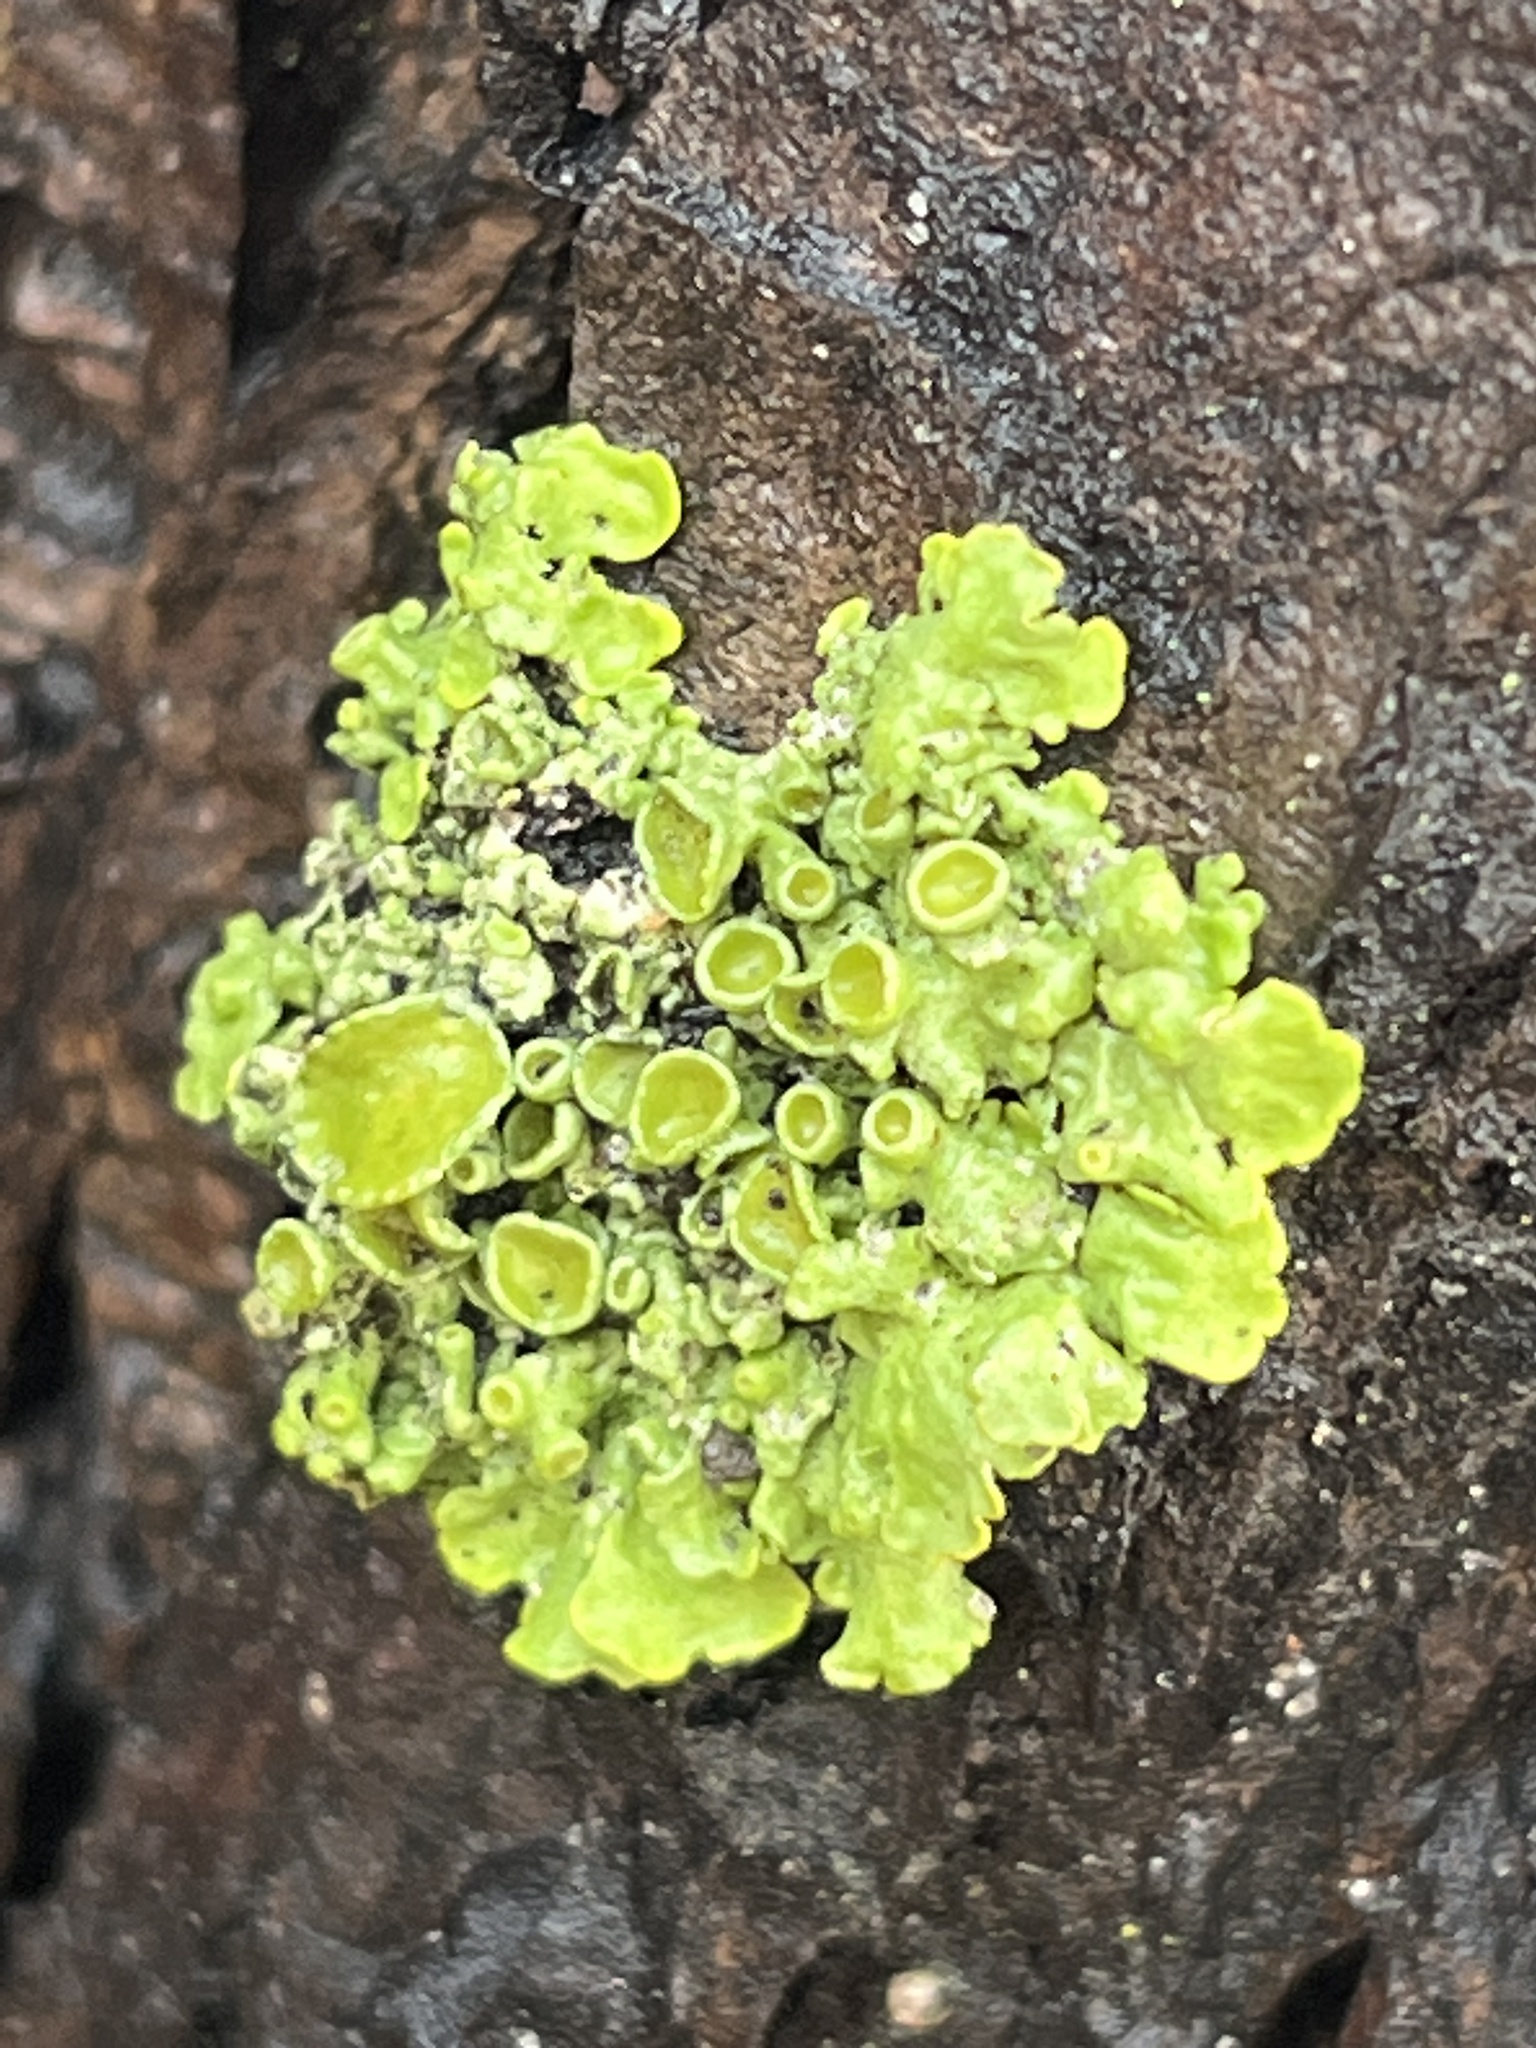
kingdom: Fungi
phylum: Ascomycota
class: Lecanoromycetes
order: Teloschistales
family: Teloschistaceae
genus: Xanthoria
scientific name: Xanthoria parietina
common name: Common orange lichen
